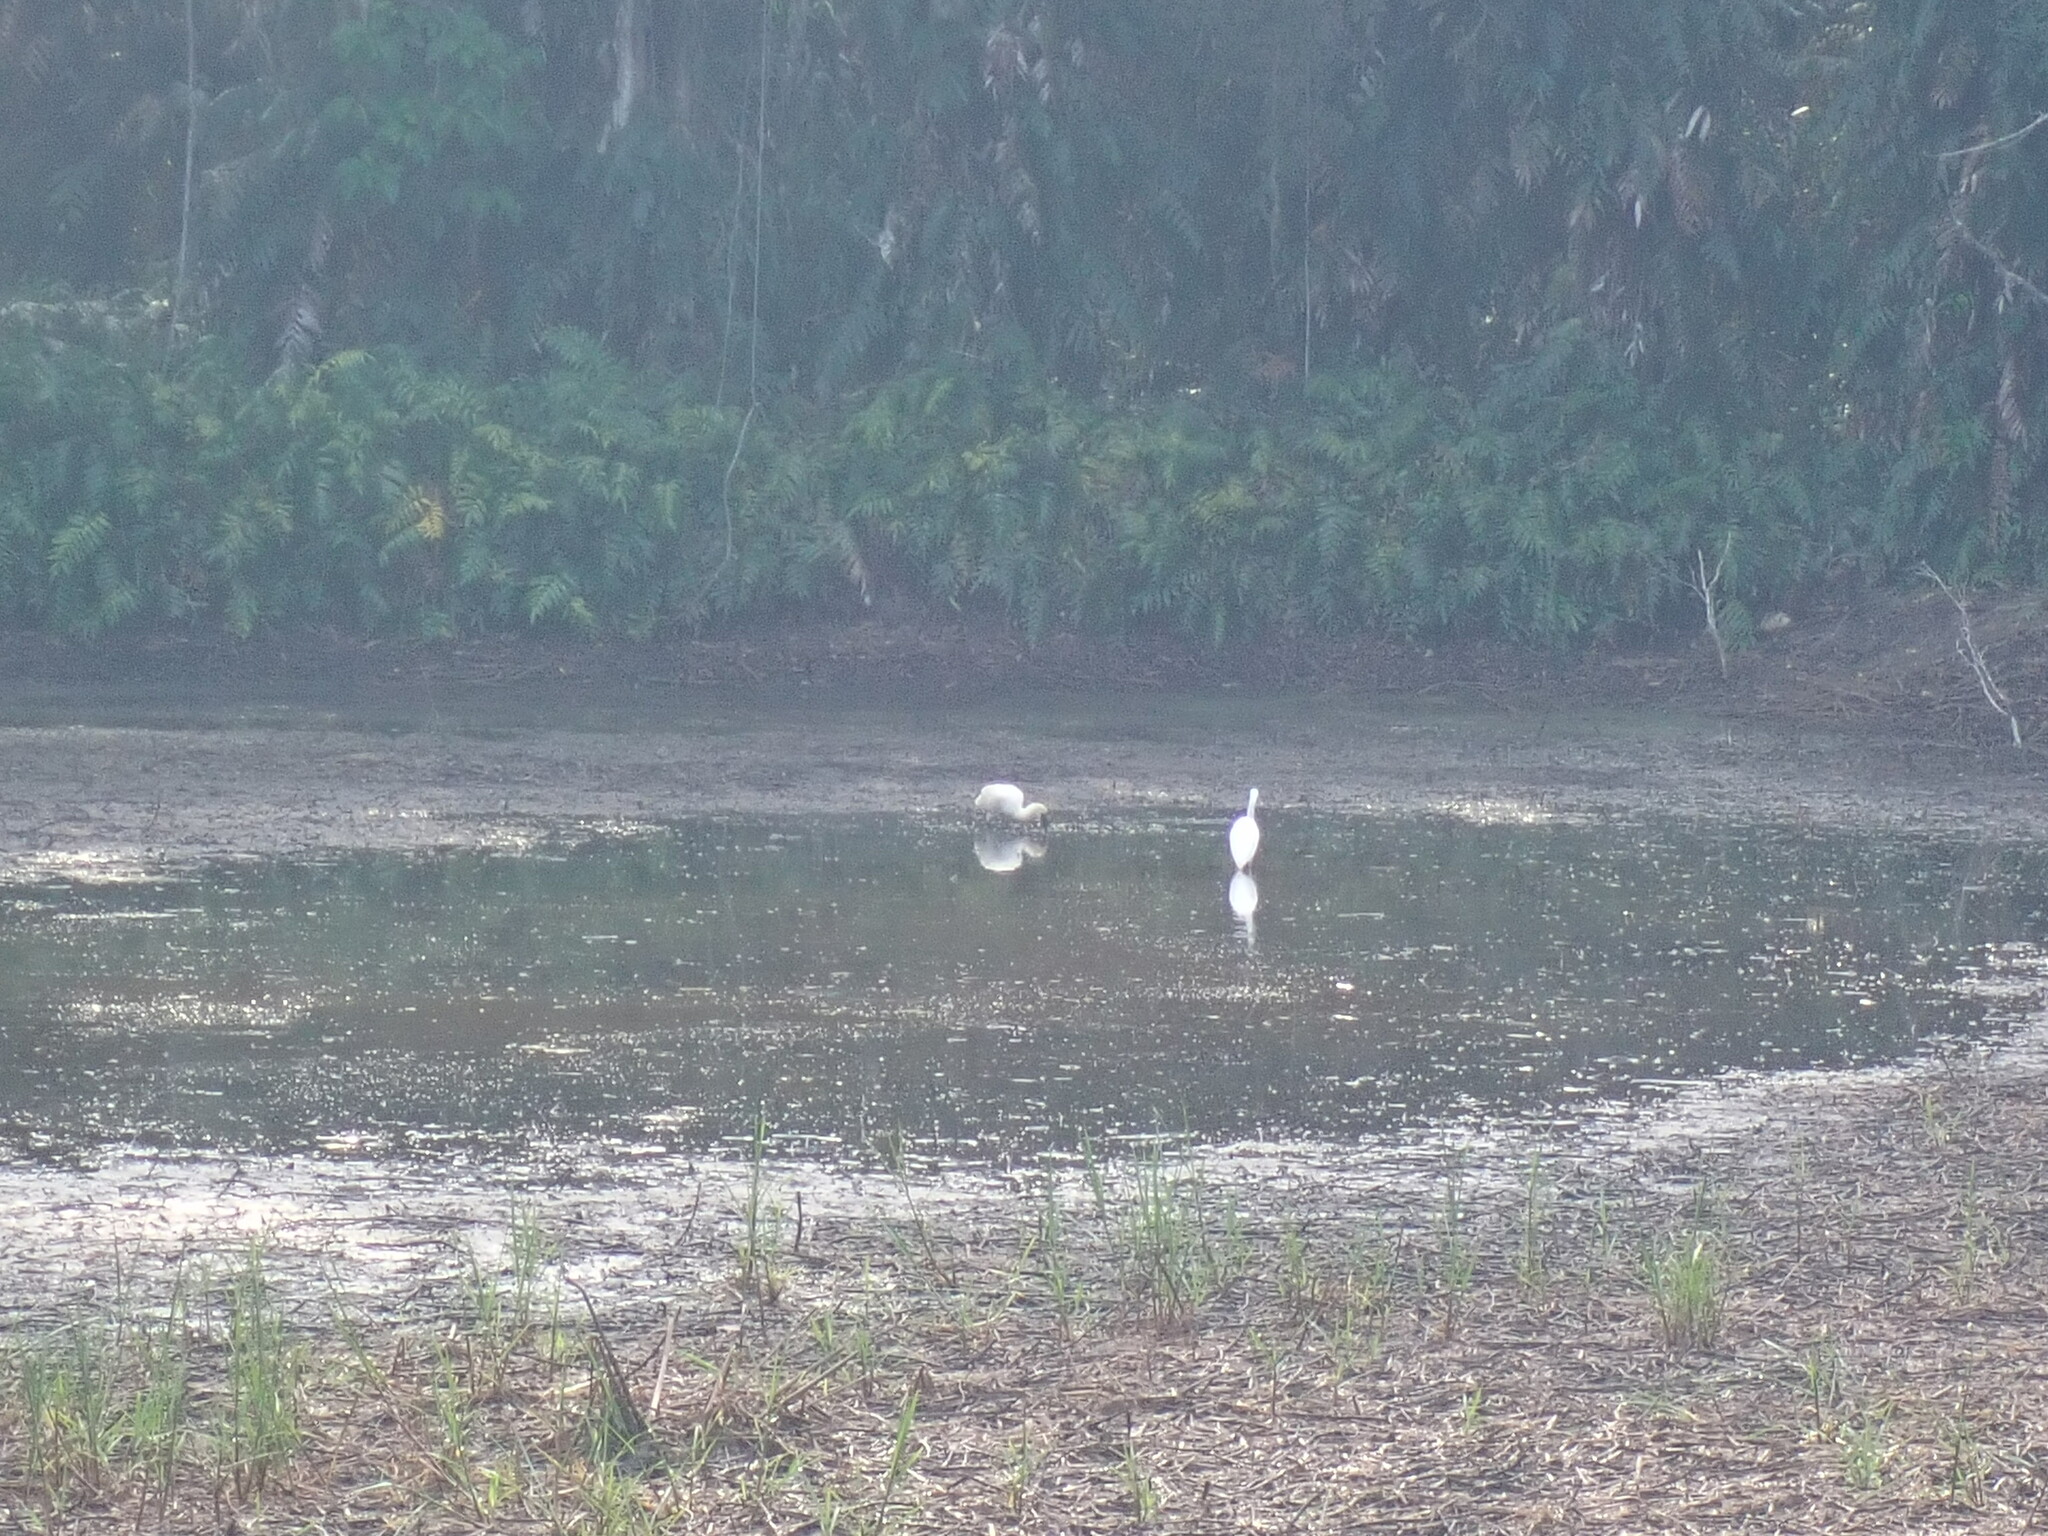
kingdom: Animalia
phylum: Chordata
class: Aves
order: Pelecaniformes
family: Threskiornithidae
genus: Platalea
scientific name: Platalea regia
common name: Royal spoonbill
